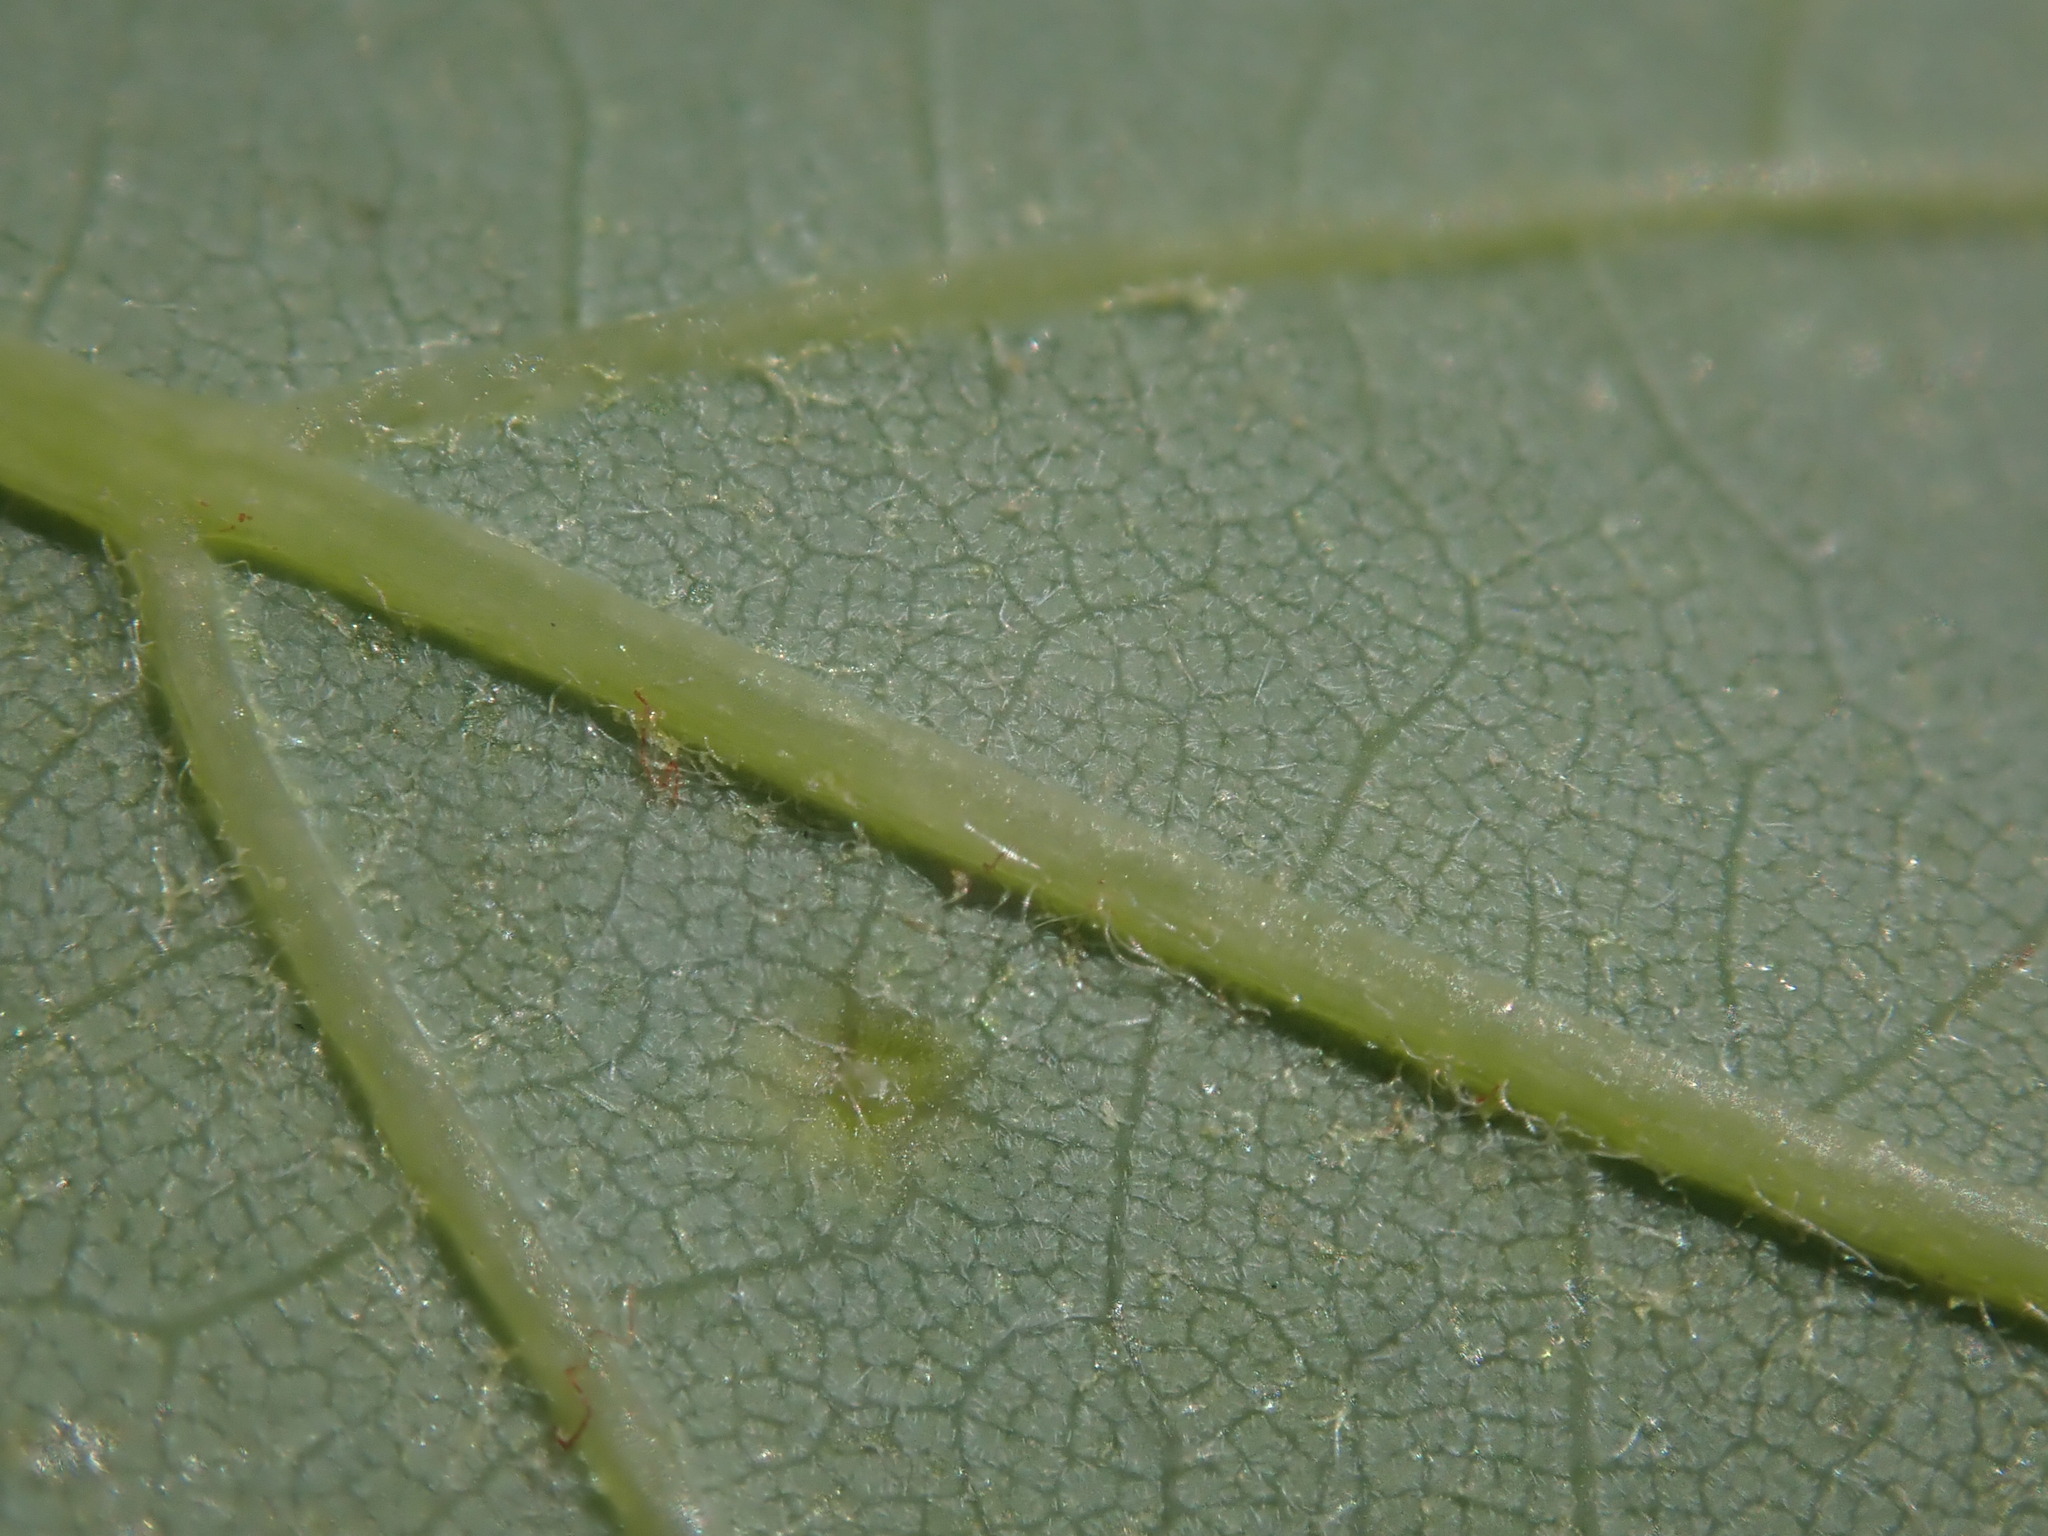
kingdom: Animalia
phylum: Arthropoda
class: Arachnida
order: Trombidiformes
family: Eriophyidae
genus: Vasates
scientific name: Vasates quadripedes
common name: Maple bladder gall mite
